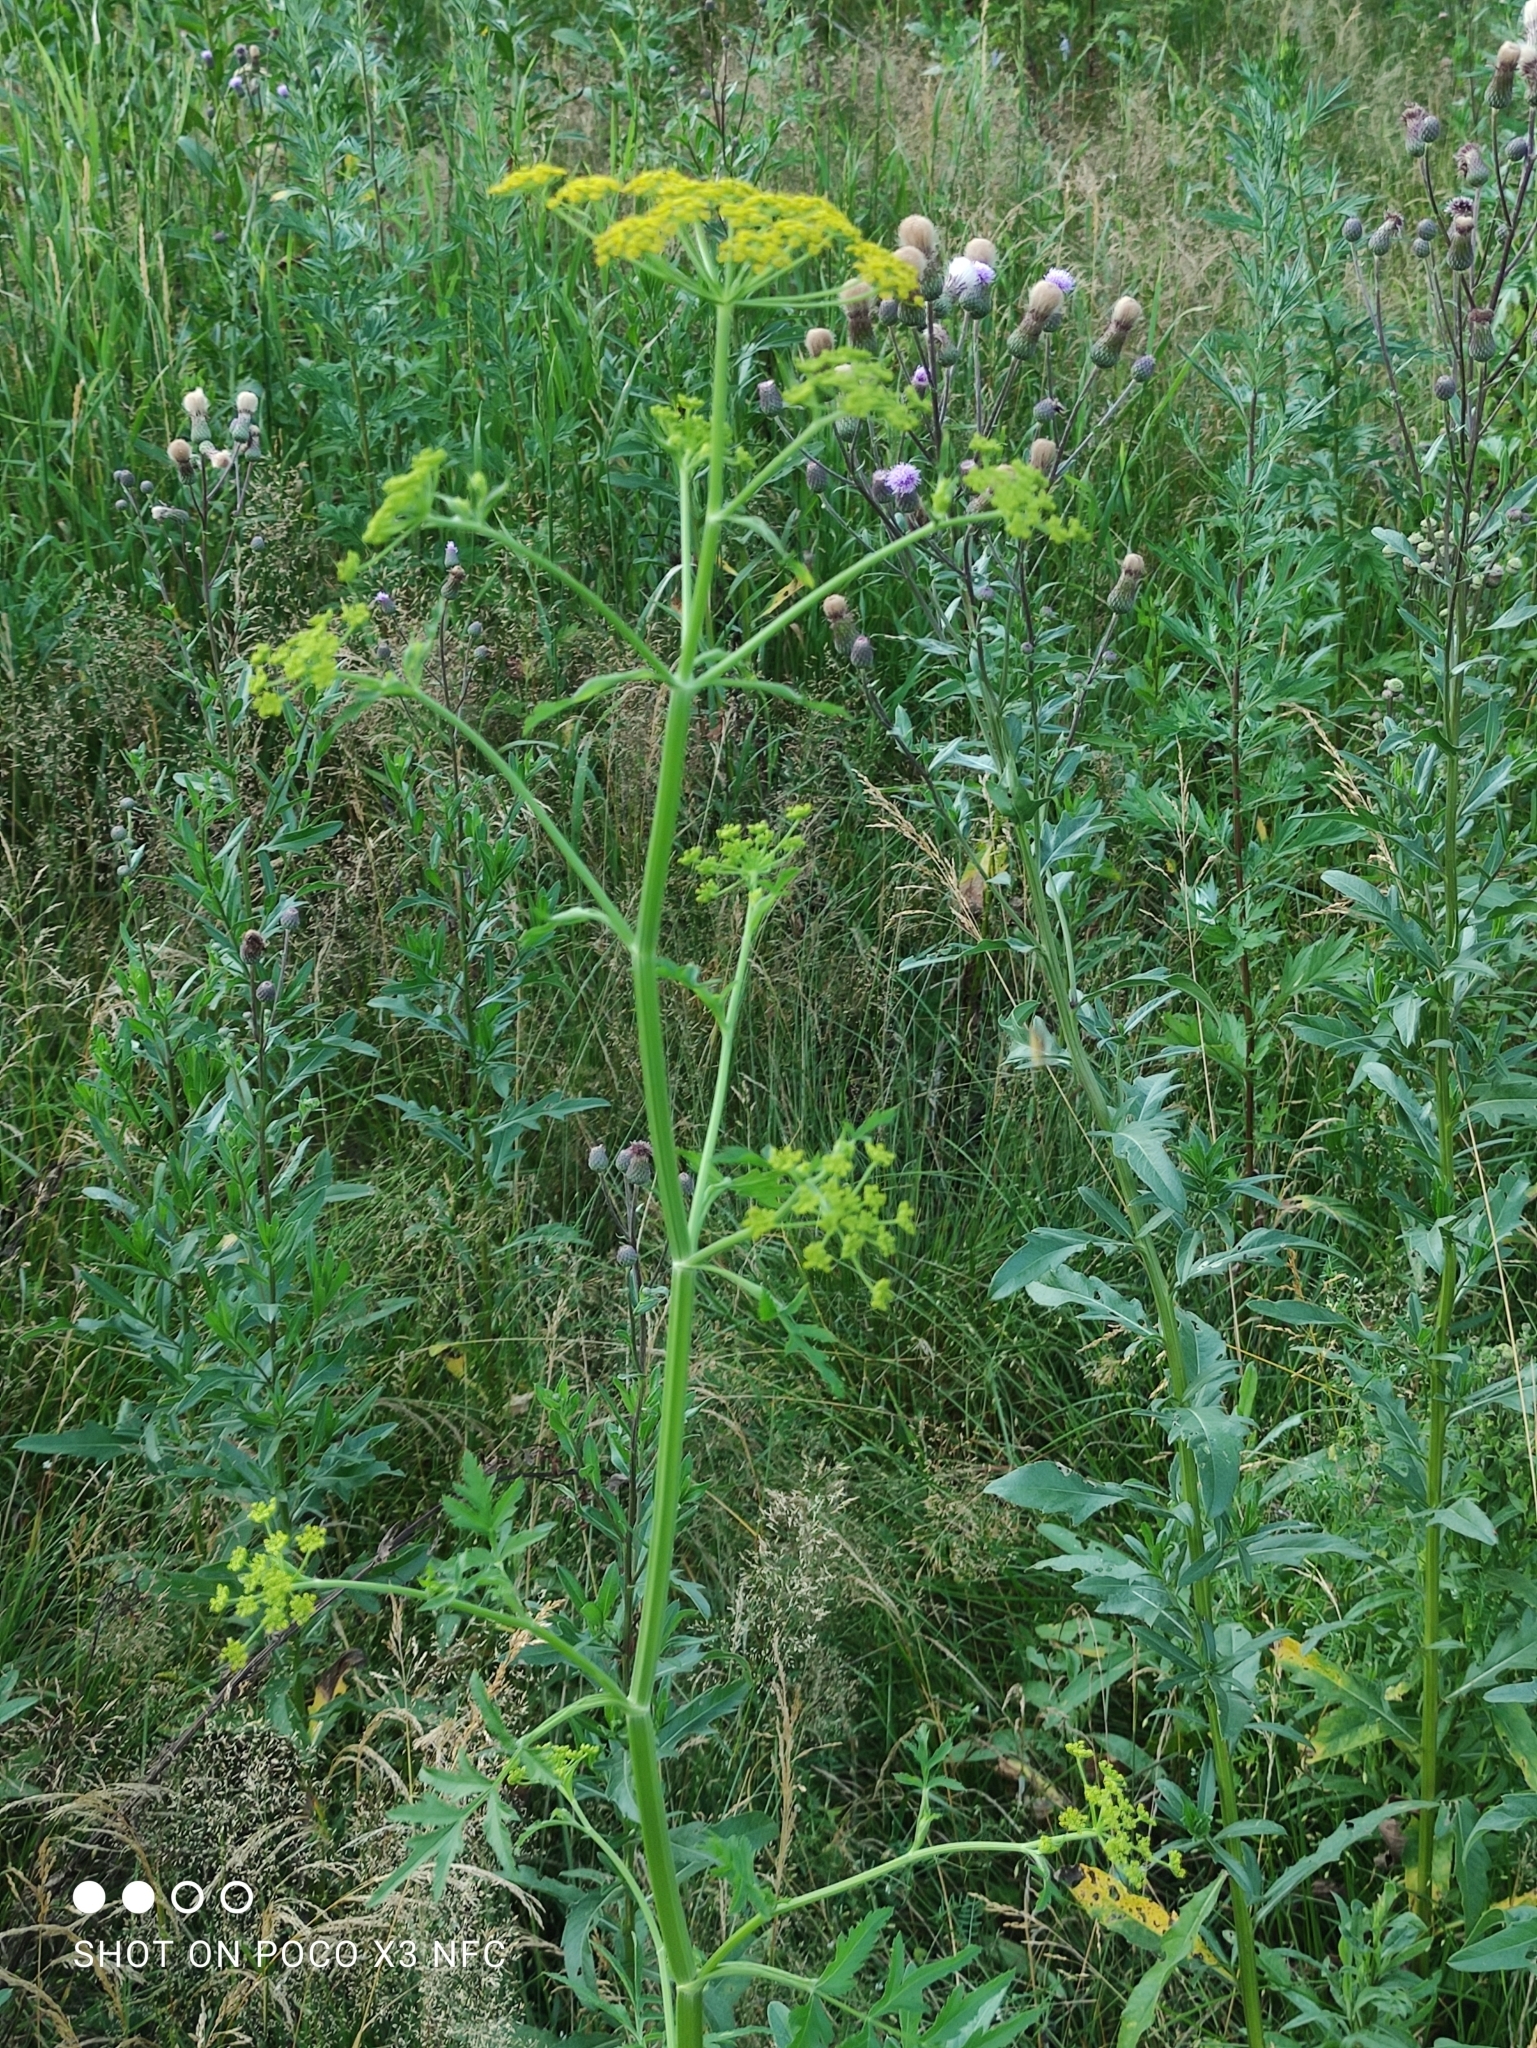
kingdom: Plantae
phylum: Tracheophyta
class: Magnoliopsida
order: Apiales
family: Apiaceae
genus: Pastinaca
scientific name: Pastinaca sativa
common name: Wild parsnip
